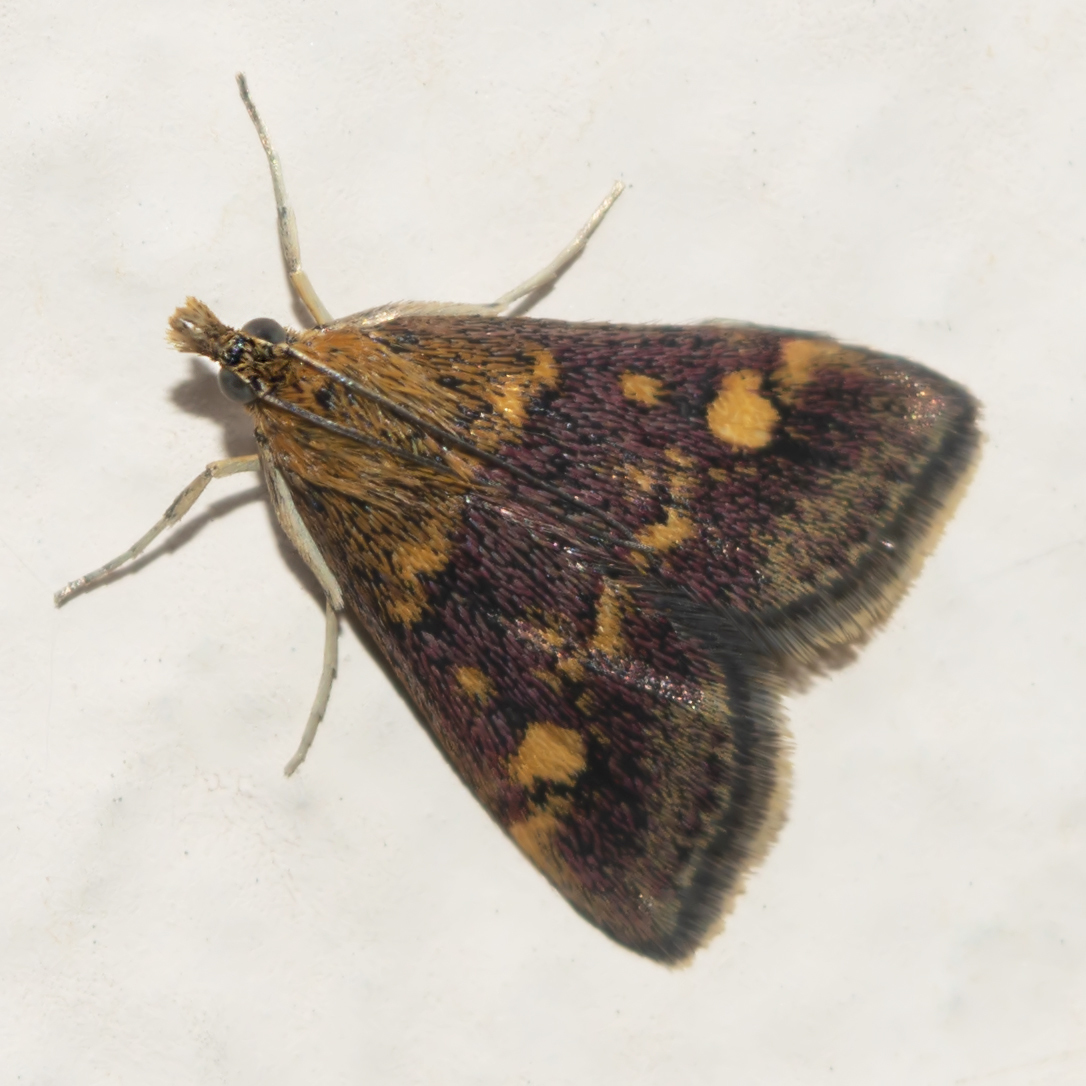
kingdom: Animalia
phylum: Arthropoda
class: Insecta
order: Lepidoptera
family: Crambidae
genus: Pyrausta
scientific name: Pyrausta aurata
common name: Small purple & gold
